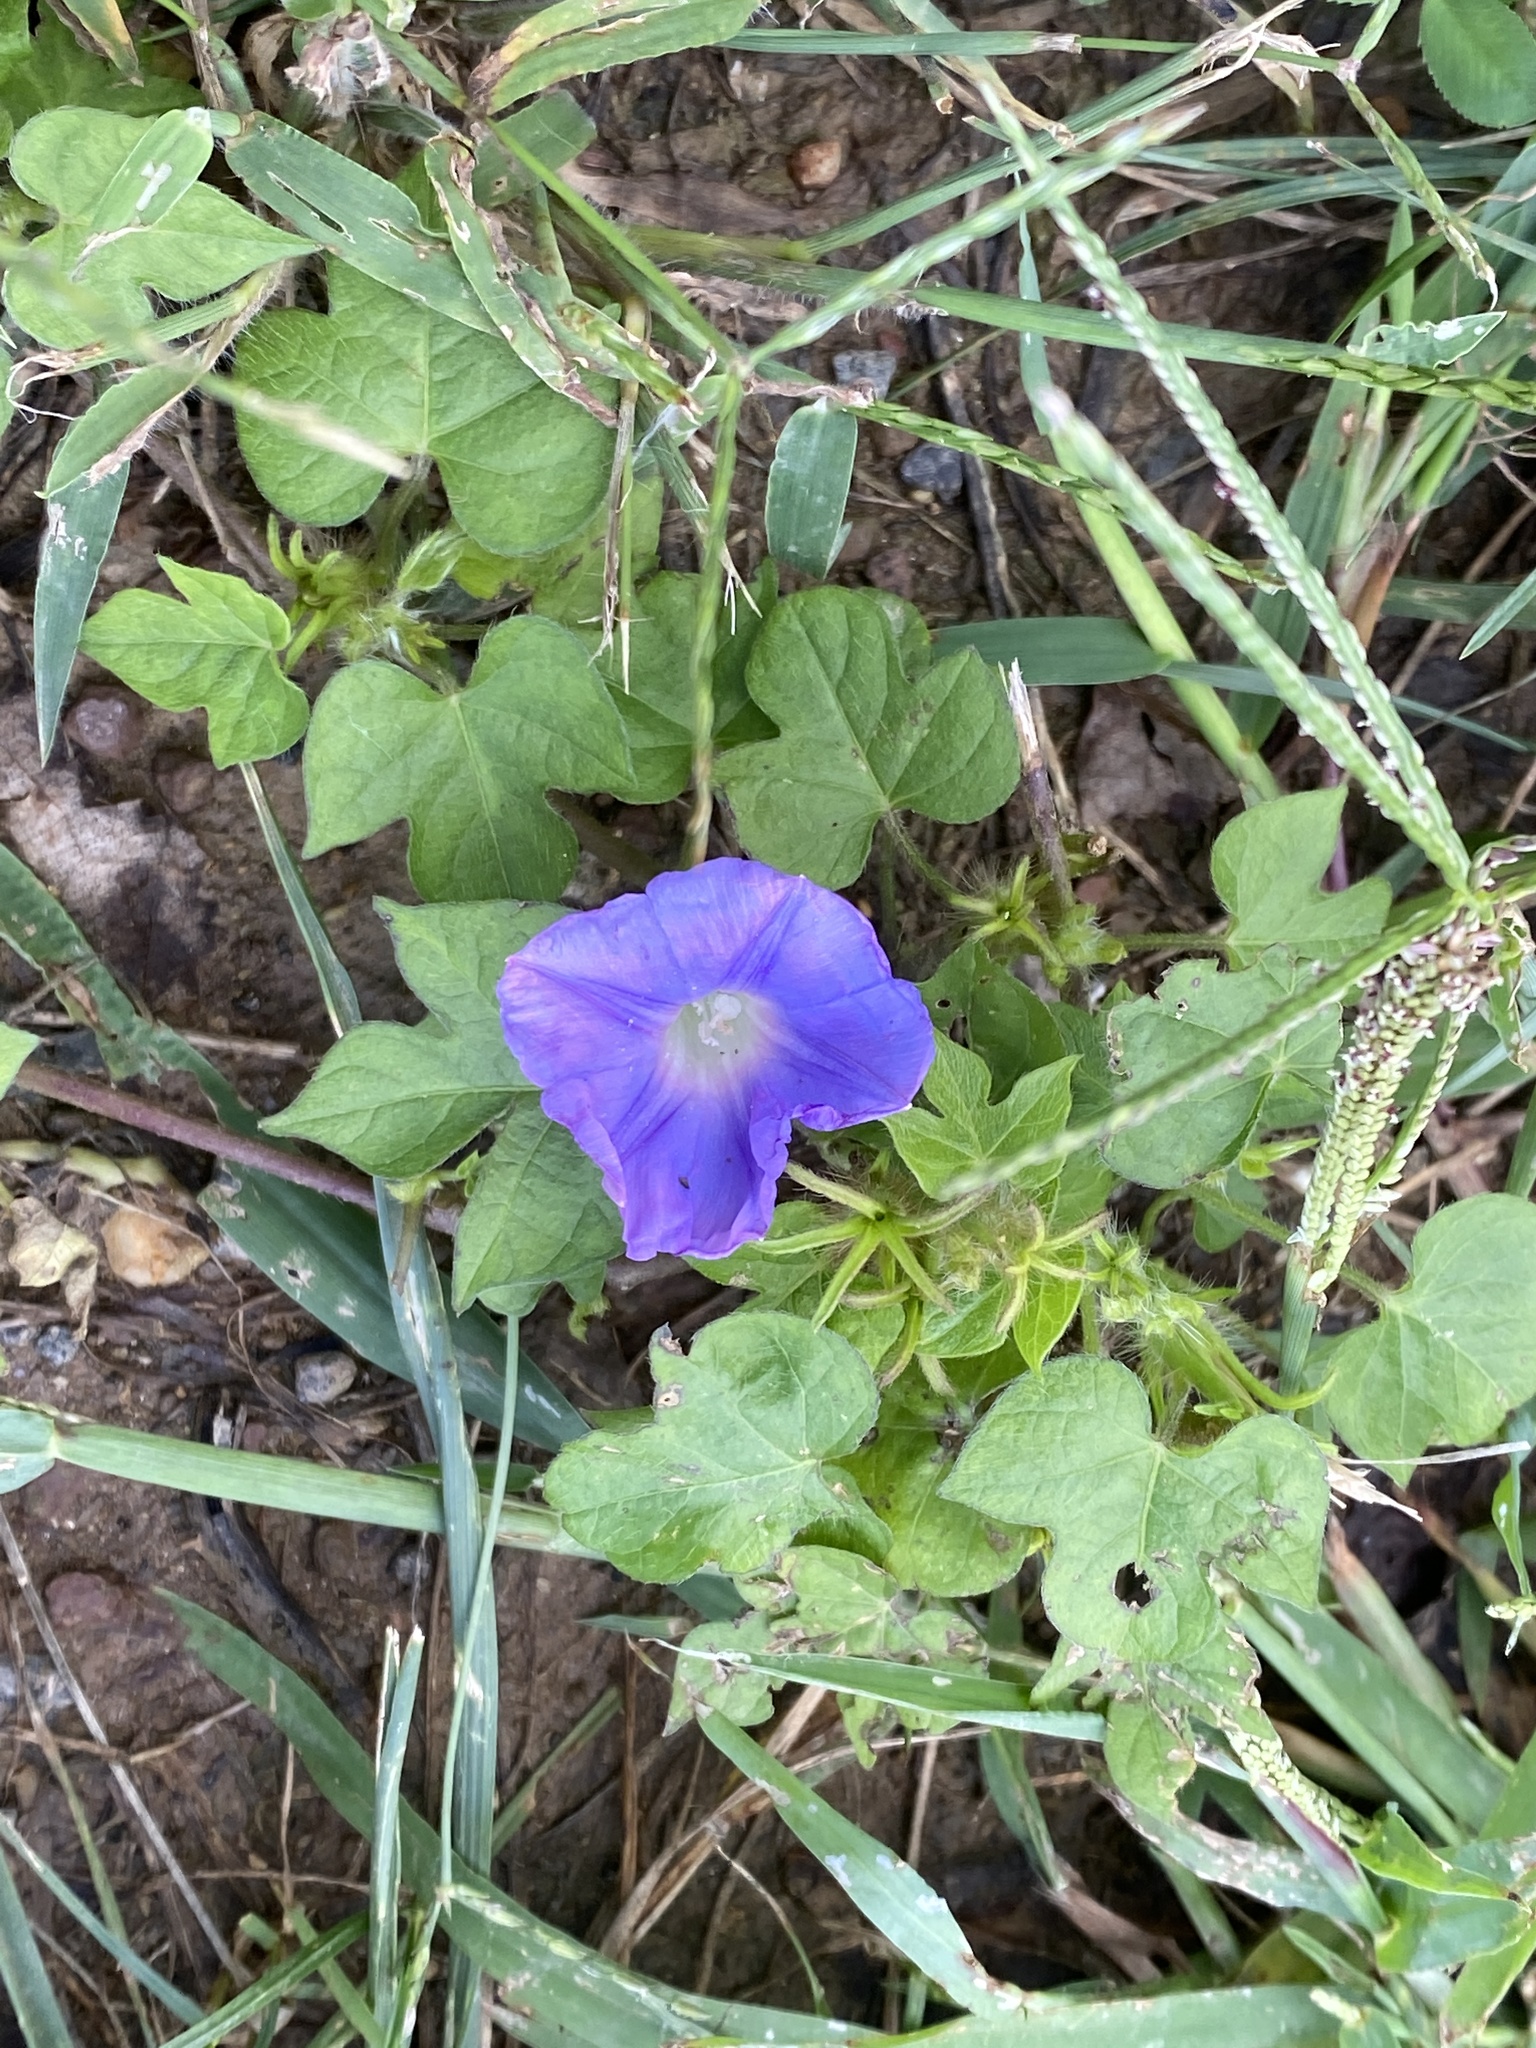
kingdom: Plantae
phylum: Tracheophyta
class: Magnoliopsida
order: Solanales
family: Convolvulaceae
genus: Ipomoea
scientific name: Ipomoea hederacea
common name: Ivy-leaved morning-glory
